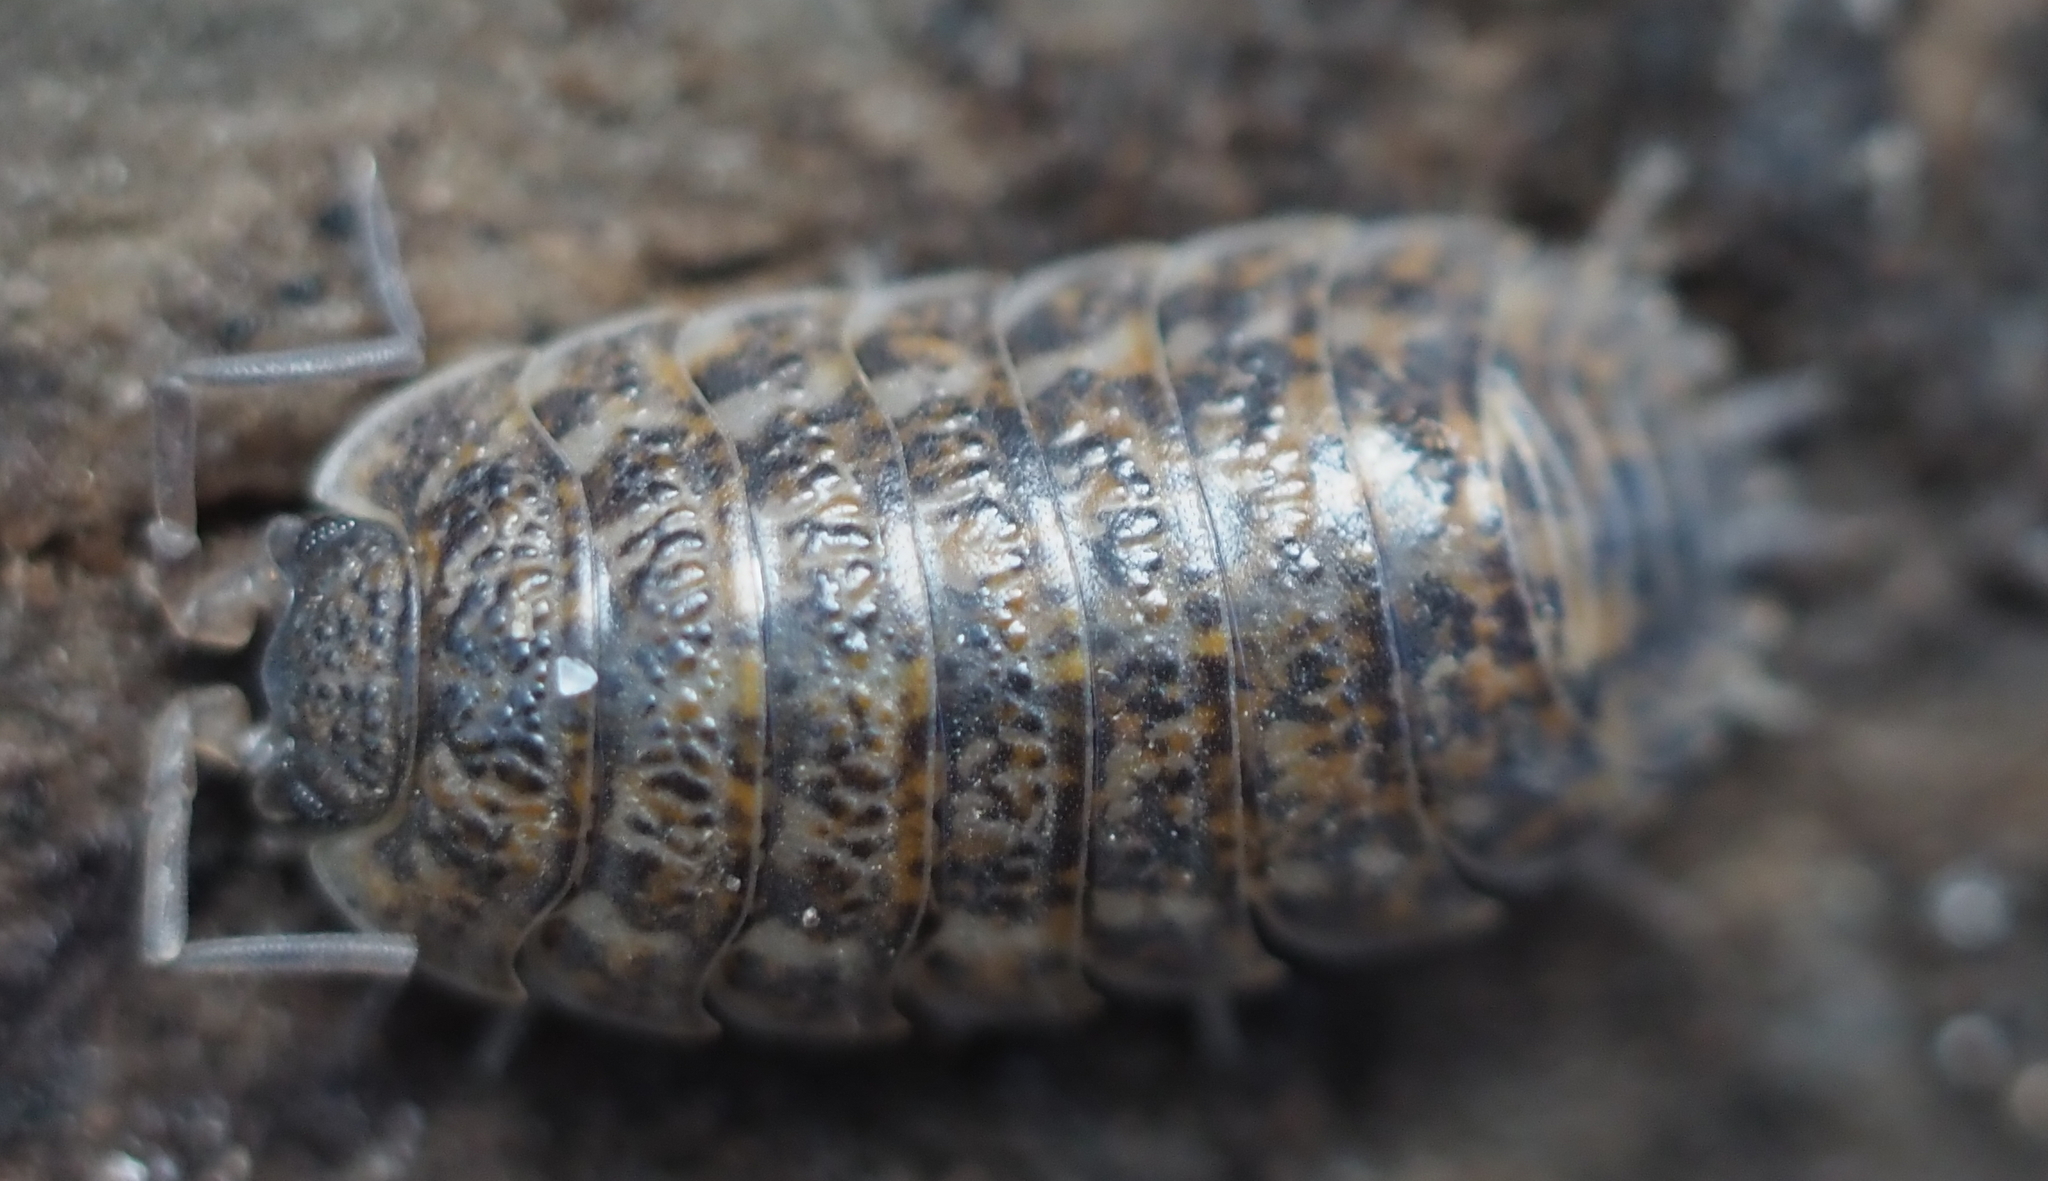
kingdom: Animalia
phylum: Arthropoda
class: Malacostraca
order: Isopoda
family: Trachelipodidae
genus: Trachelipus
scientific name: Trachelipus rathkii
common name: Isopod
